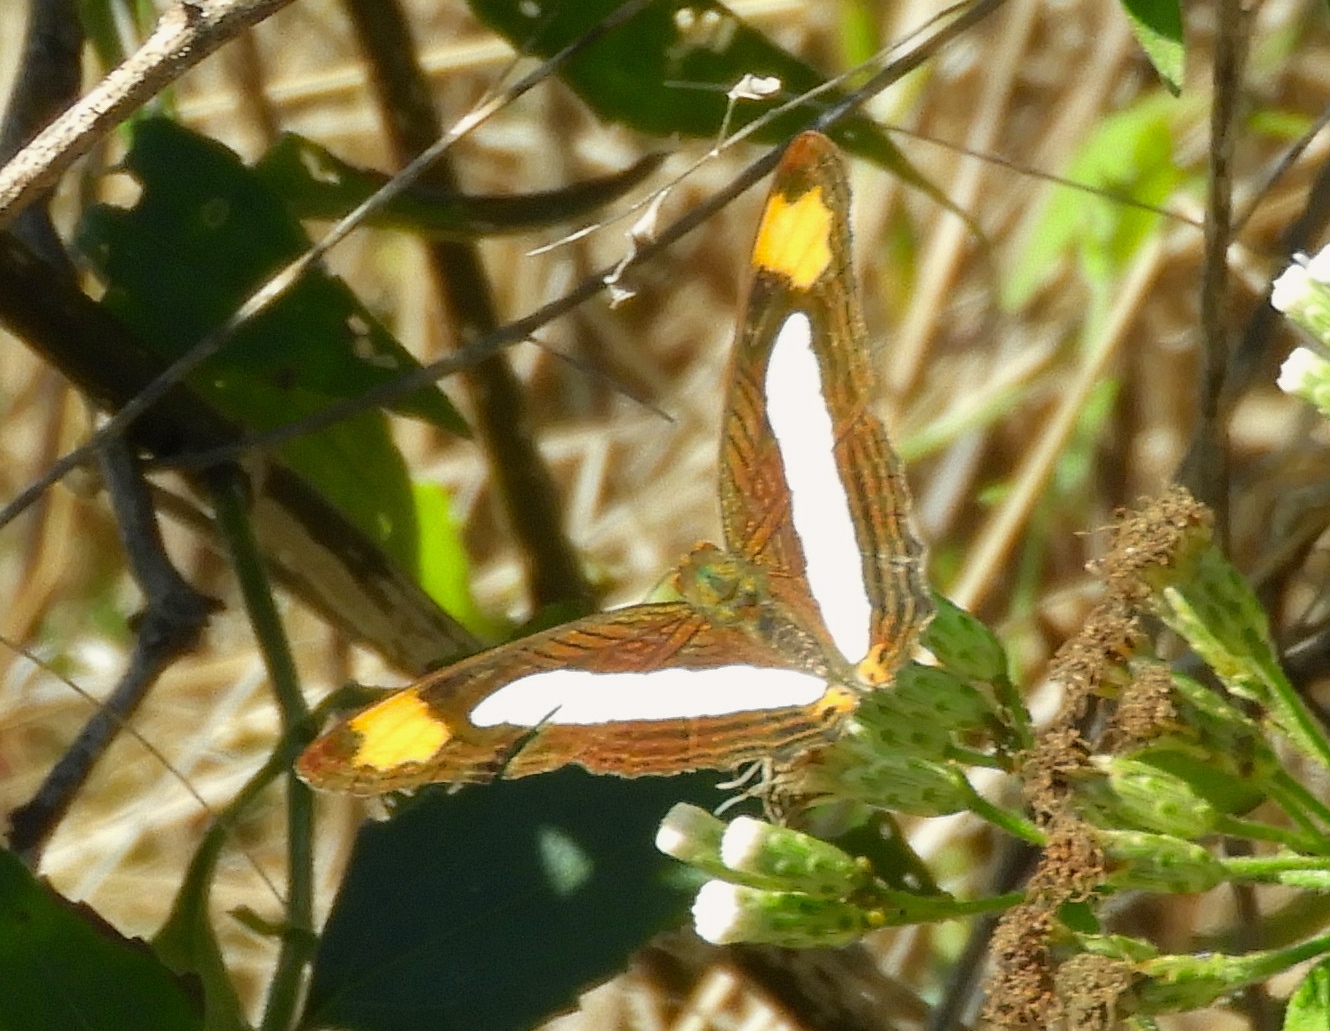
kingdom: Animalia
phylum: Arthropoda
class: Insecta
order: Lepidoptera
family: Nymphalidae
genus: Limenitis
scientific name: Limenitis iphiclus
